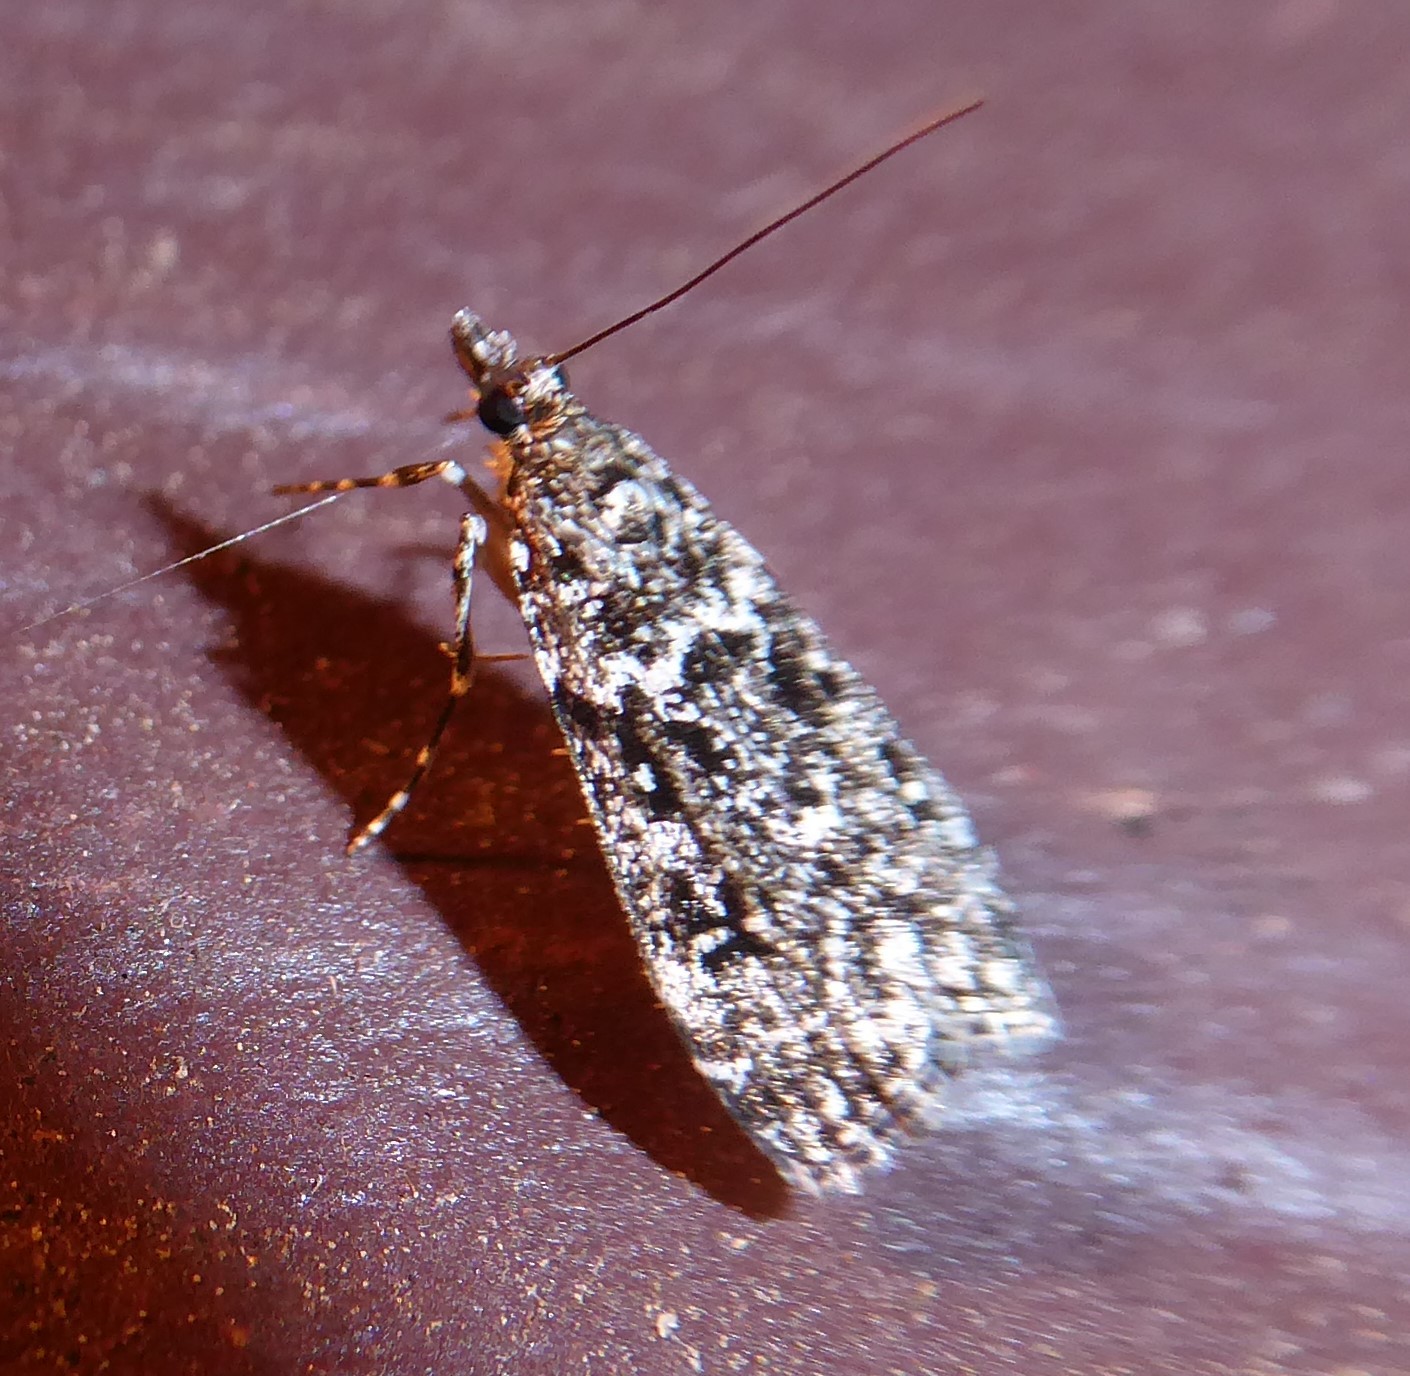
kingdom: Animalia
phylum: Arthropoda
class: Insecta
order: Lepidoptera
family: Crambidae
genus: Eudonia
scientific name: Eudonia philerga
